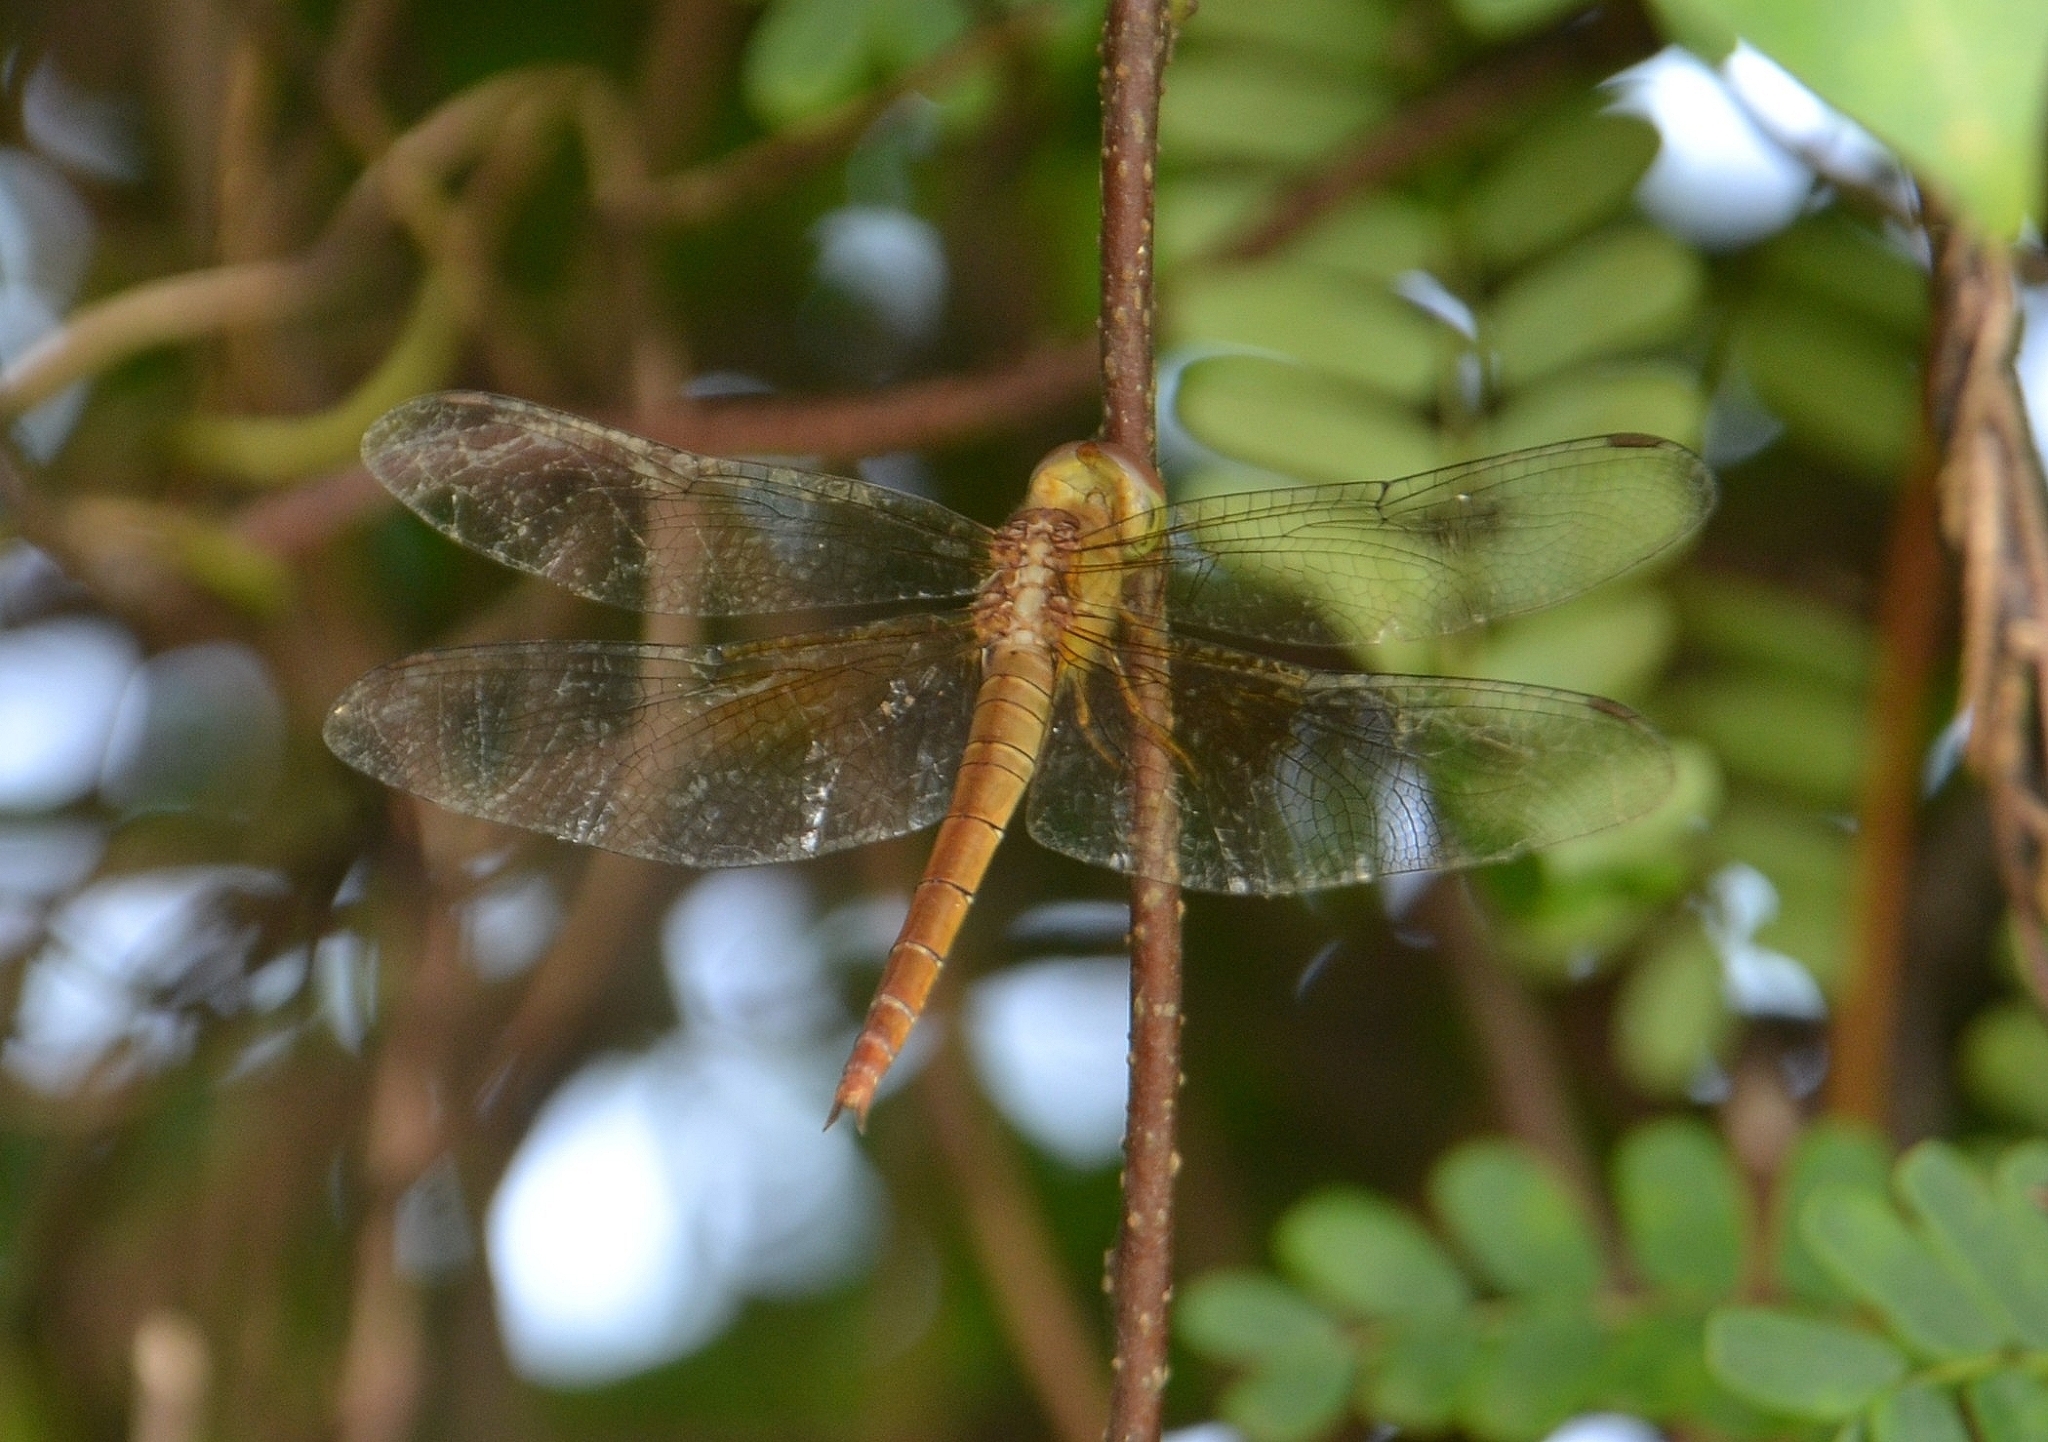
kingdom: Animalia
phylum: Arthropoda
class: Insecta
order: Odonata
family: Libellulidae
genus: Tholymis
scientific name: Tholymis tillarga
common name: Coral-tailed cloud wing
